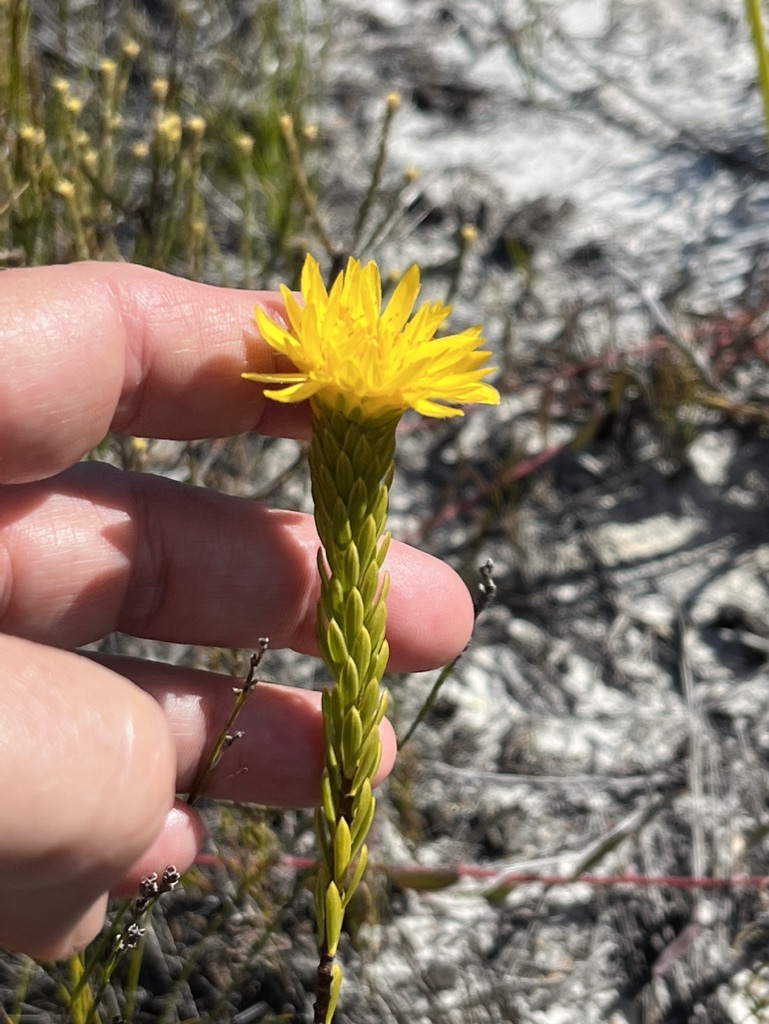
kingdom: Plantae
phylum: Tracheophyta
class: Magnoliopsida
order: Malvales
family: Thymelaeaceae
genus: Lachnaea
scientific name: Lachnaea aurea
